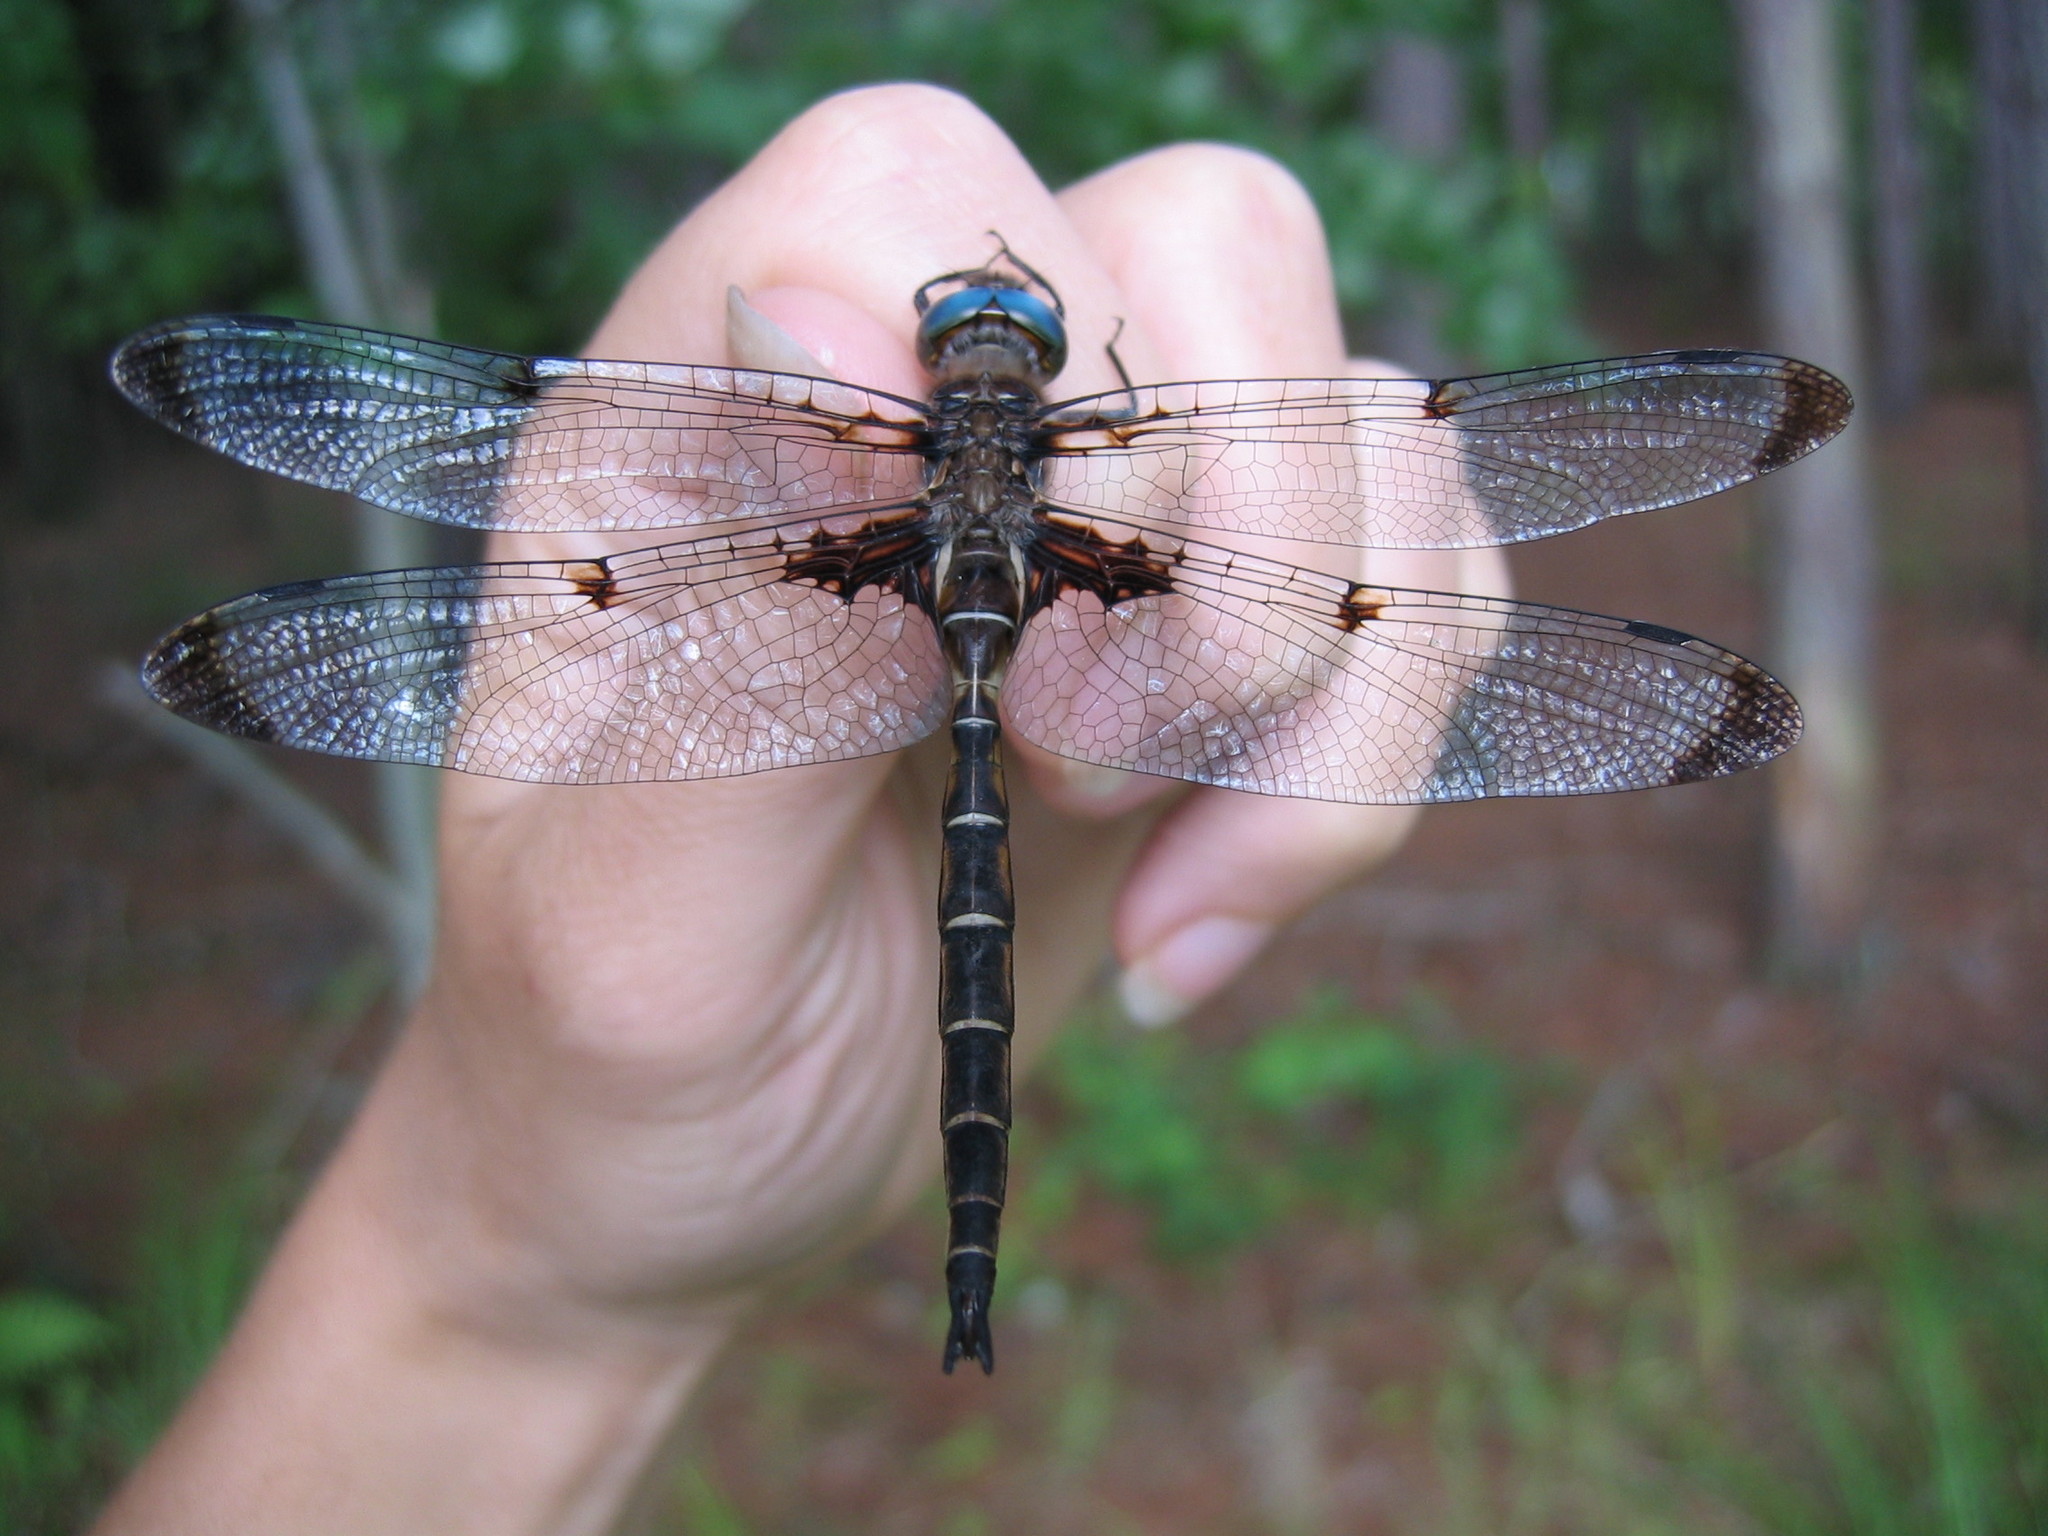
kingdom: Animalia
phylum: Arthropoda
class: Insecta
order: Odonata
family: Corduliidae
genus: Epitheca
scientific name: Epitheca princeps
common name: Prince baskettail
